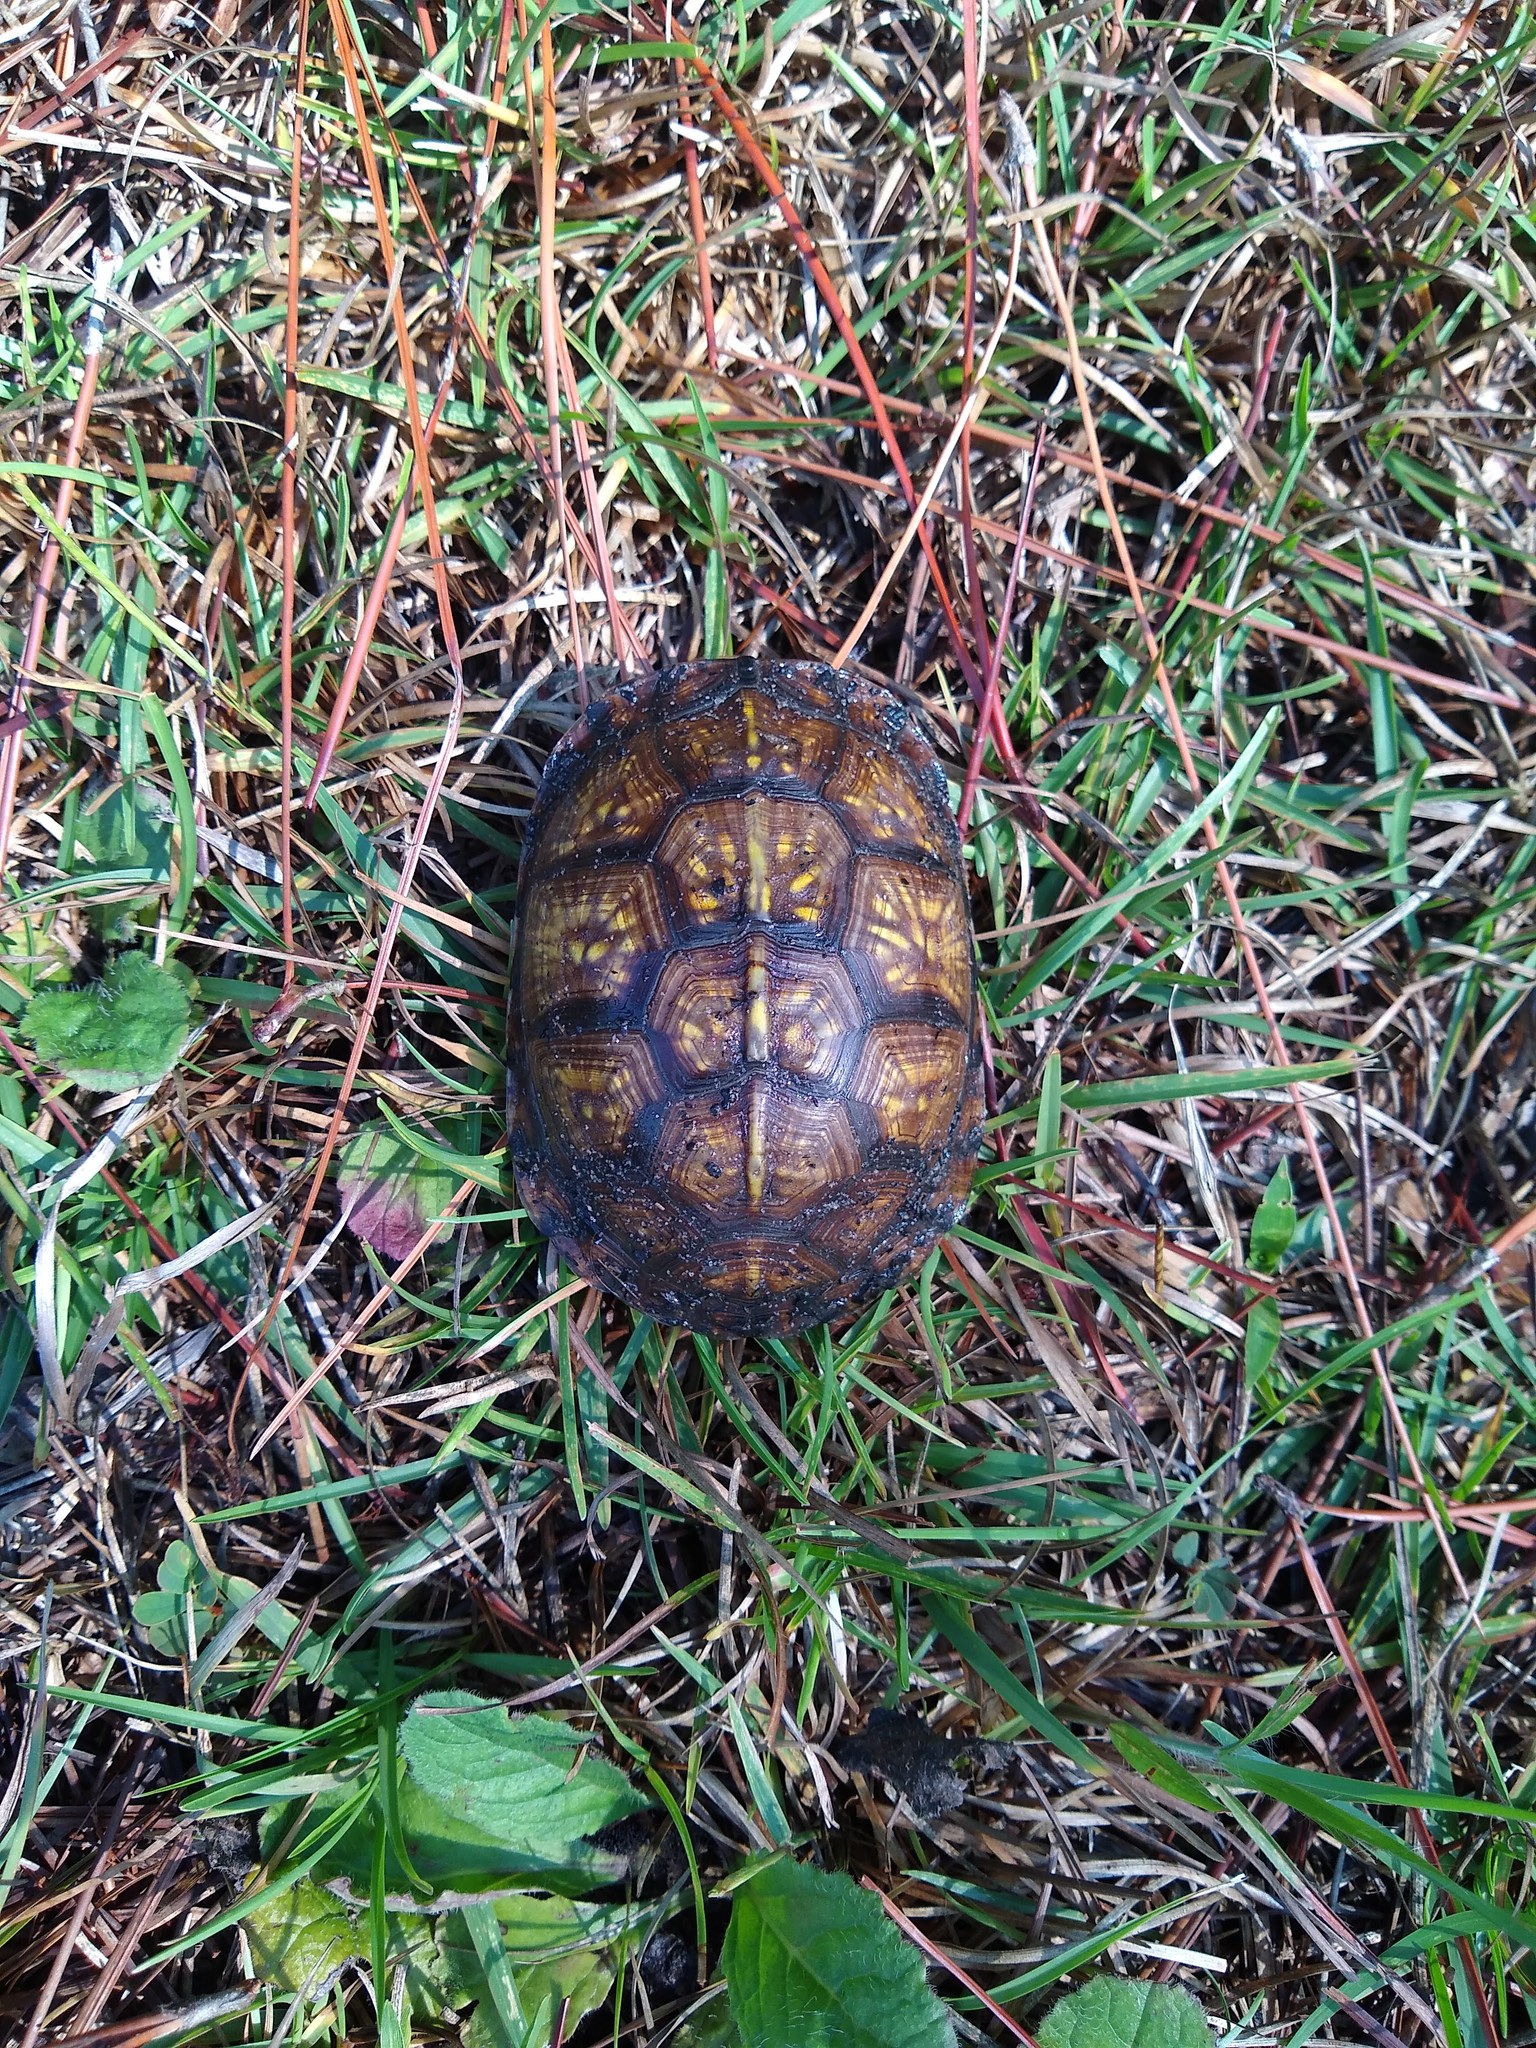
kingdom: Animalia
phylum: Chordata
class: Testudines
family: Emydidae
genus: Terrapene
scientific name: Terrapene carolina
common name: Common box turtle
